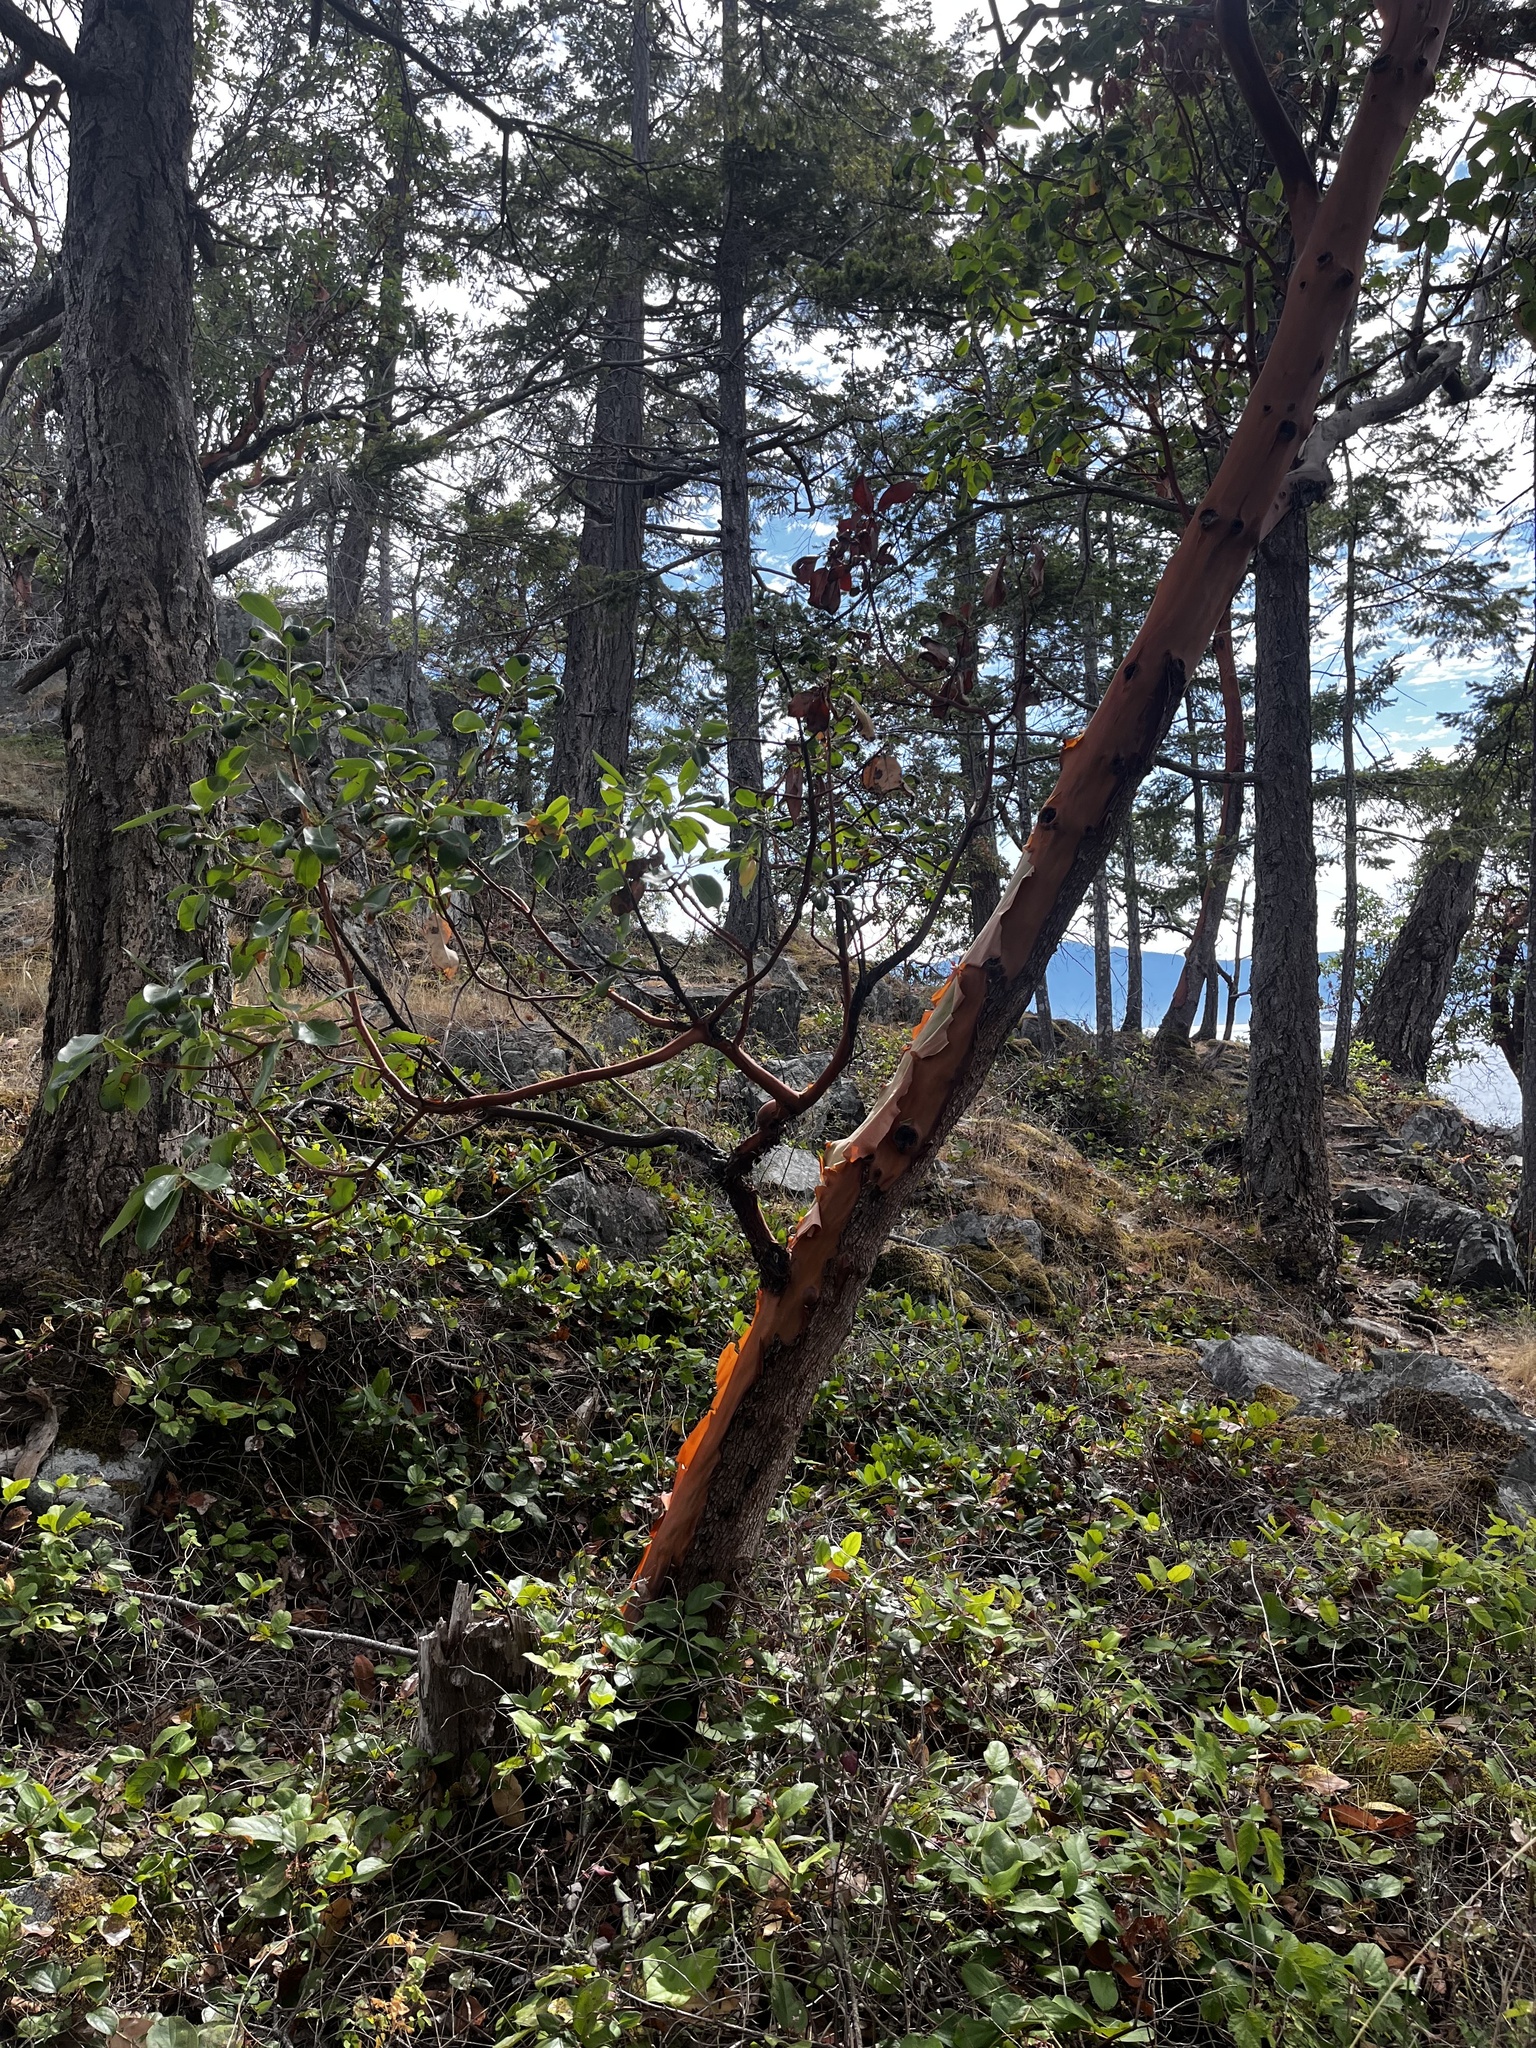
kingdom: Plantae
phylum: Tracheophyta
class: Magnoliopsida
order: Ericales
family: Ericaceae
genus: Arbutus
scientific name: Arbutus menziesii
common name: Pacific madrone
